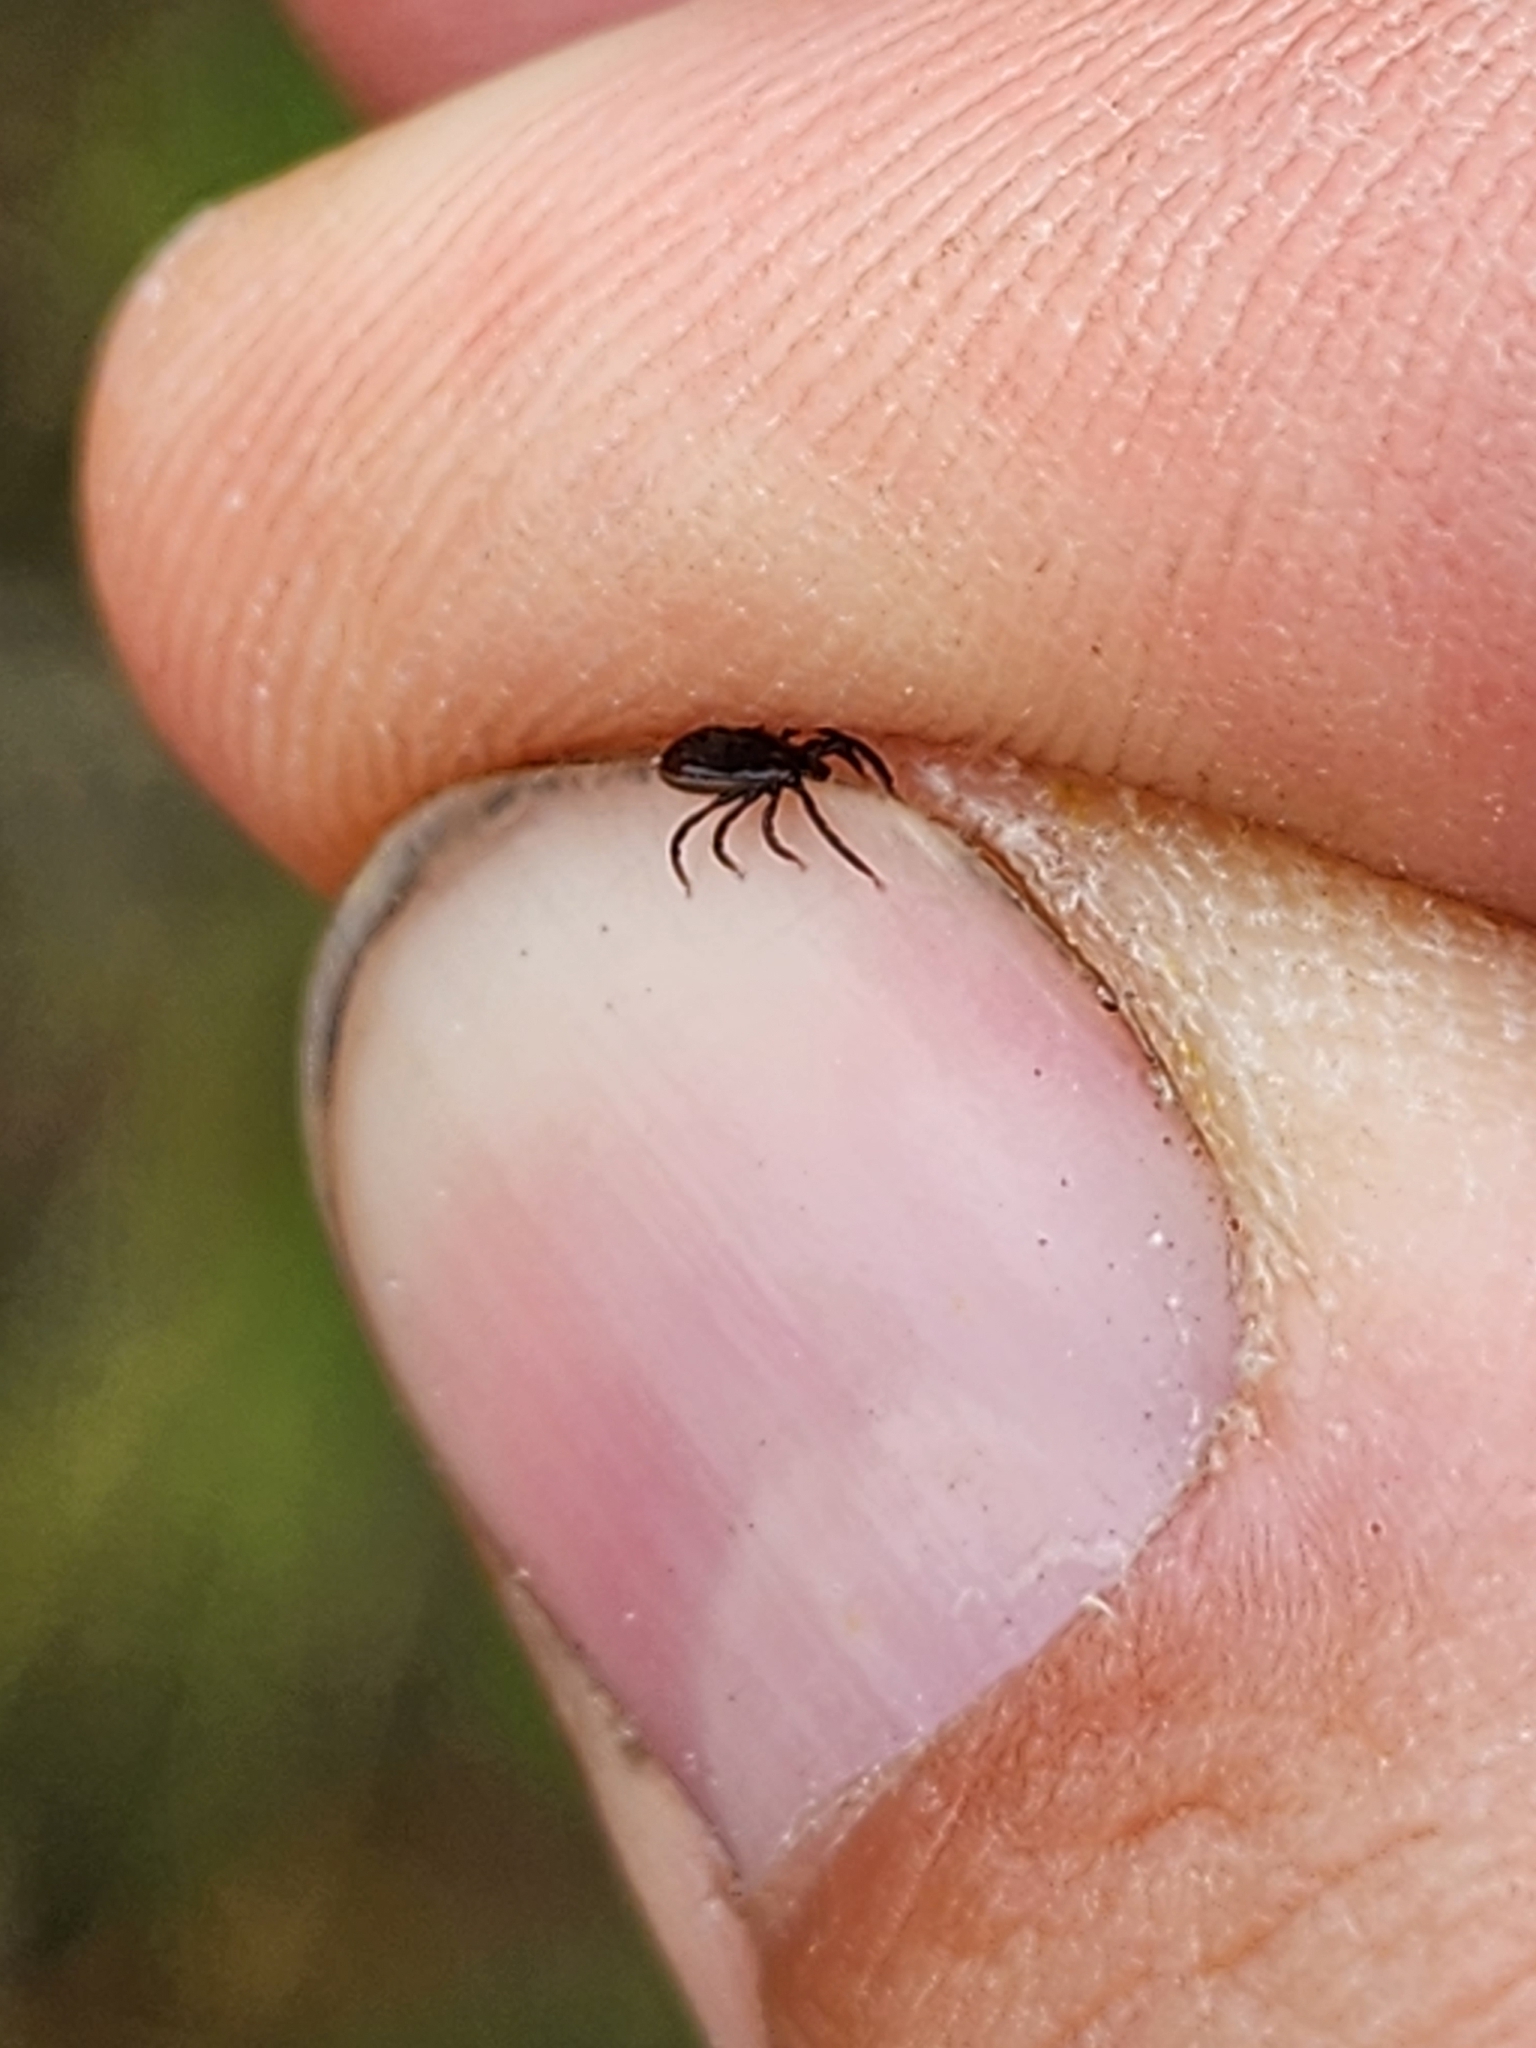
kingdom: Animalia
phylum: Arthropoda
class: Arachnida
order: Ixodida
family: Ixodidae
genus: Ixodes
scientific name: Ixodes scapularis
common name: Black legged tick
